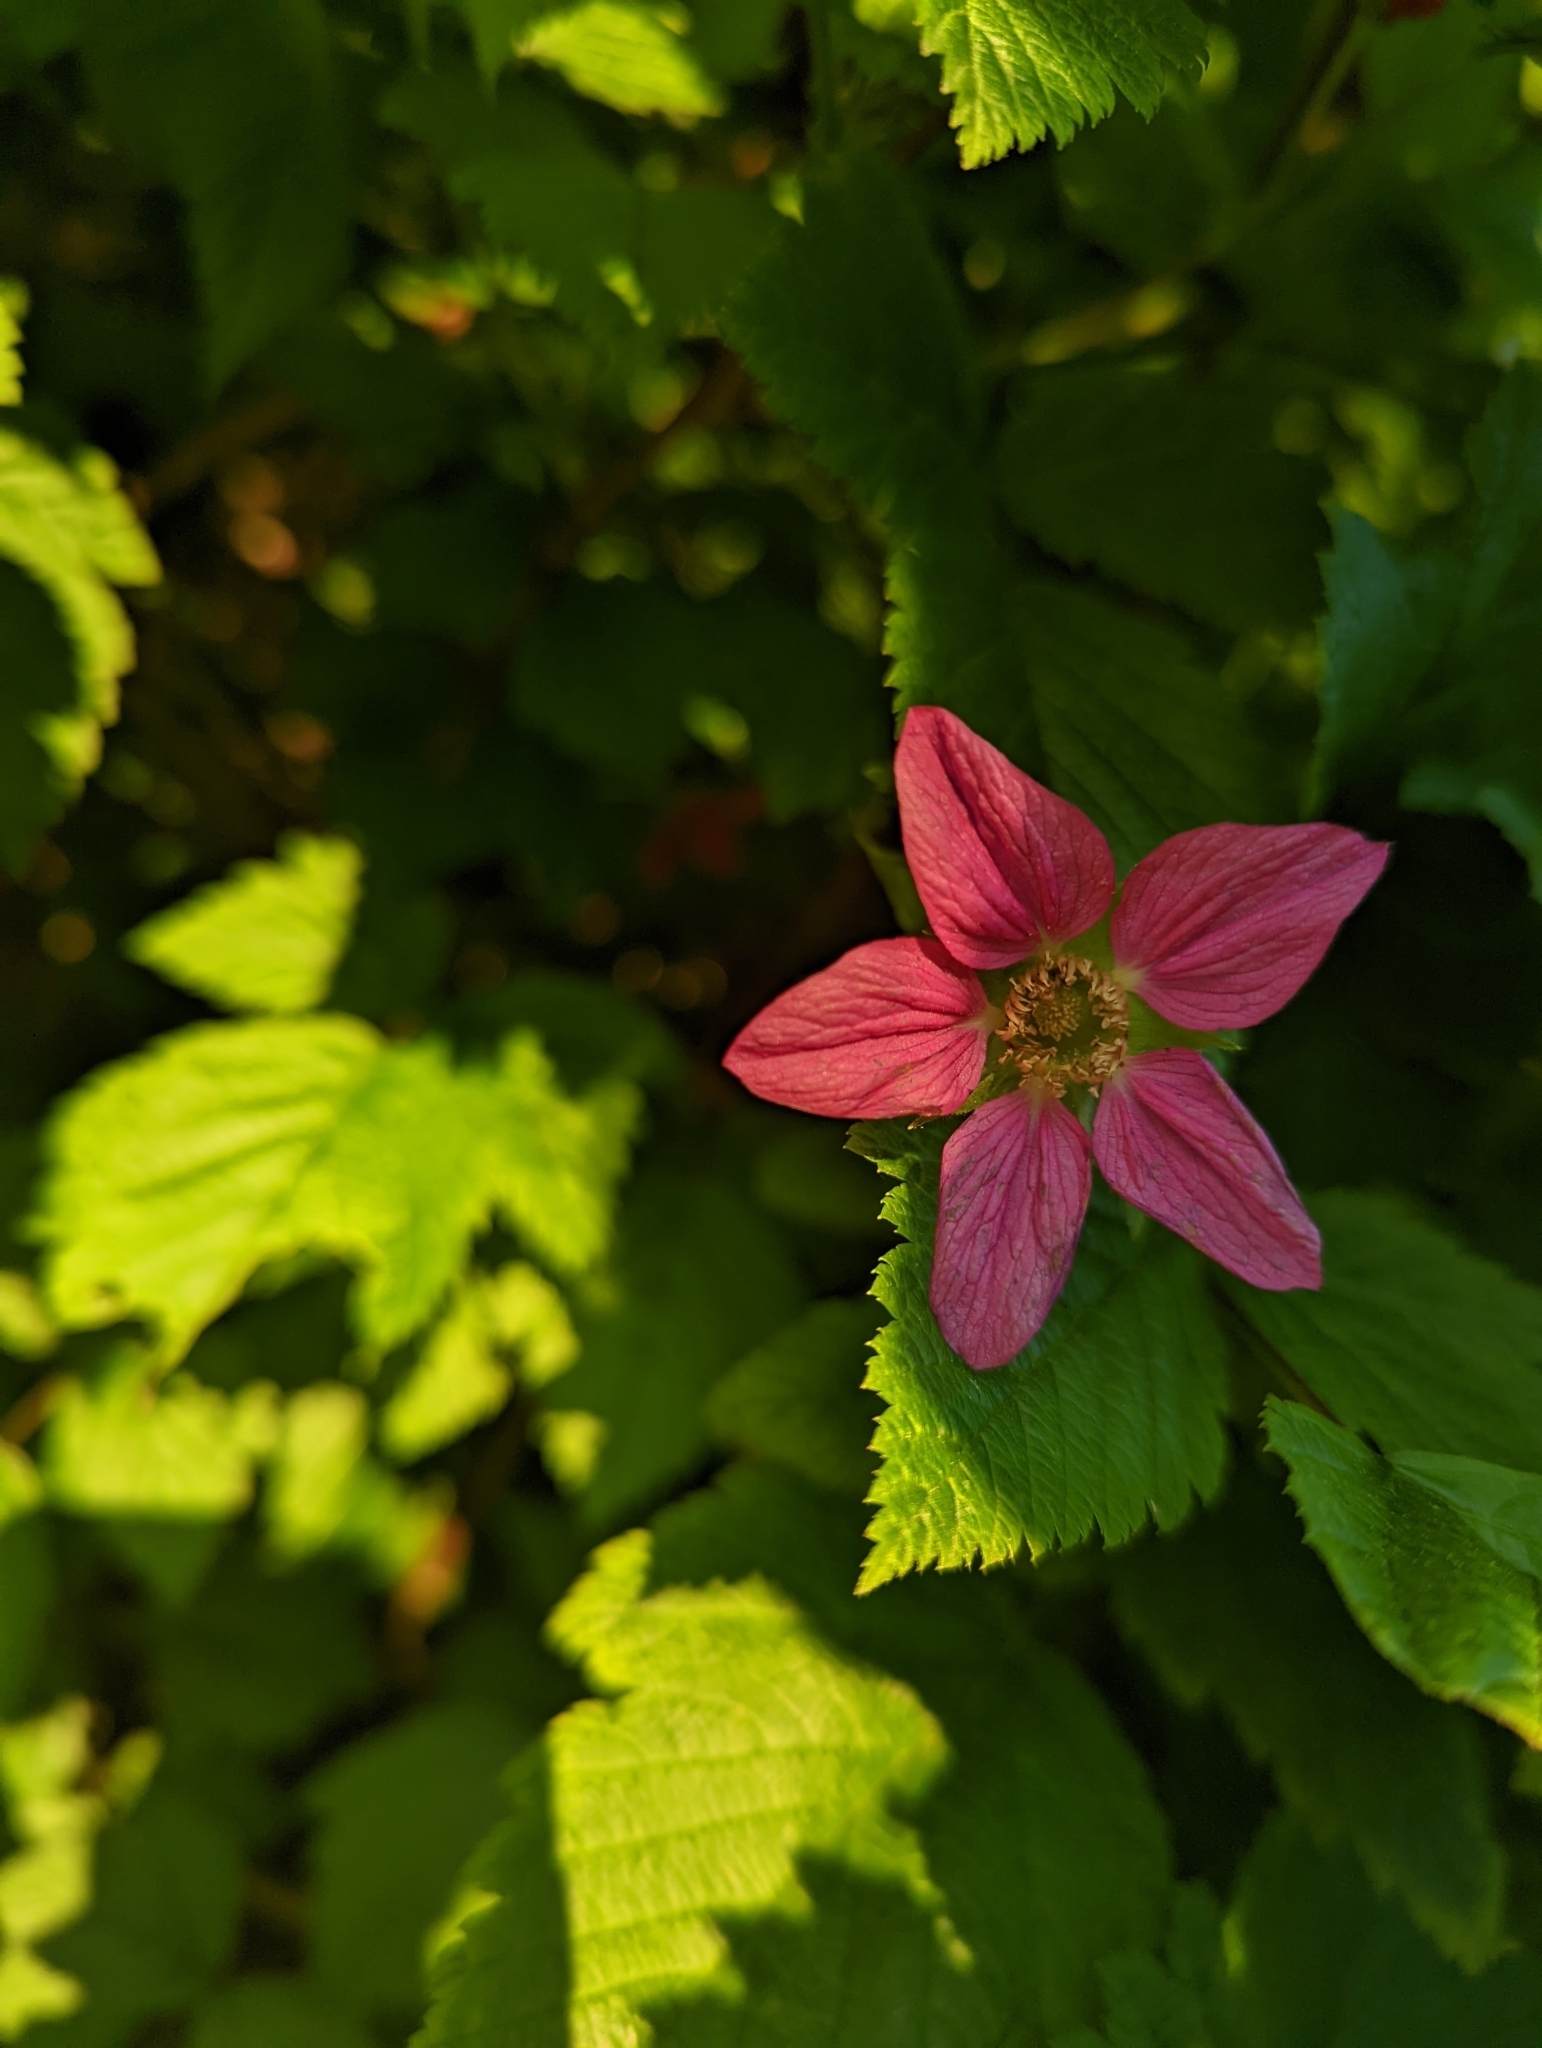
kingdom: Plantae
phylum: Tracheophyta
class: Magnoliopsida
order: Rosales
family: Rosaceae
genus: Rubus
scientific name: Rubus spectabilis
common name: Salmonberry
